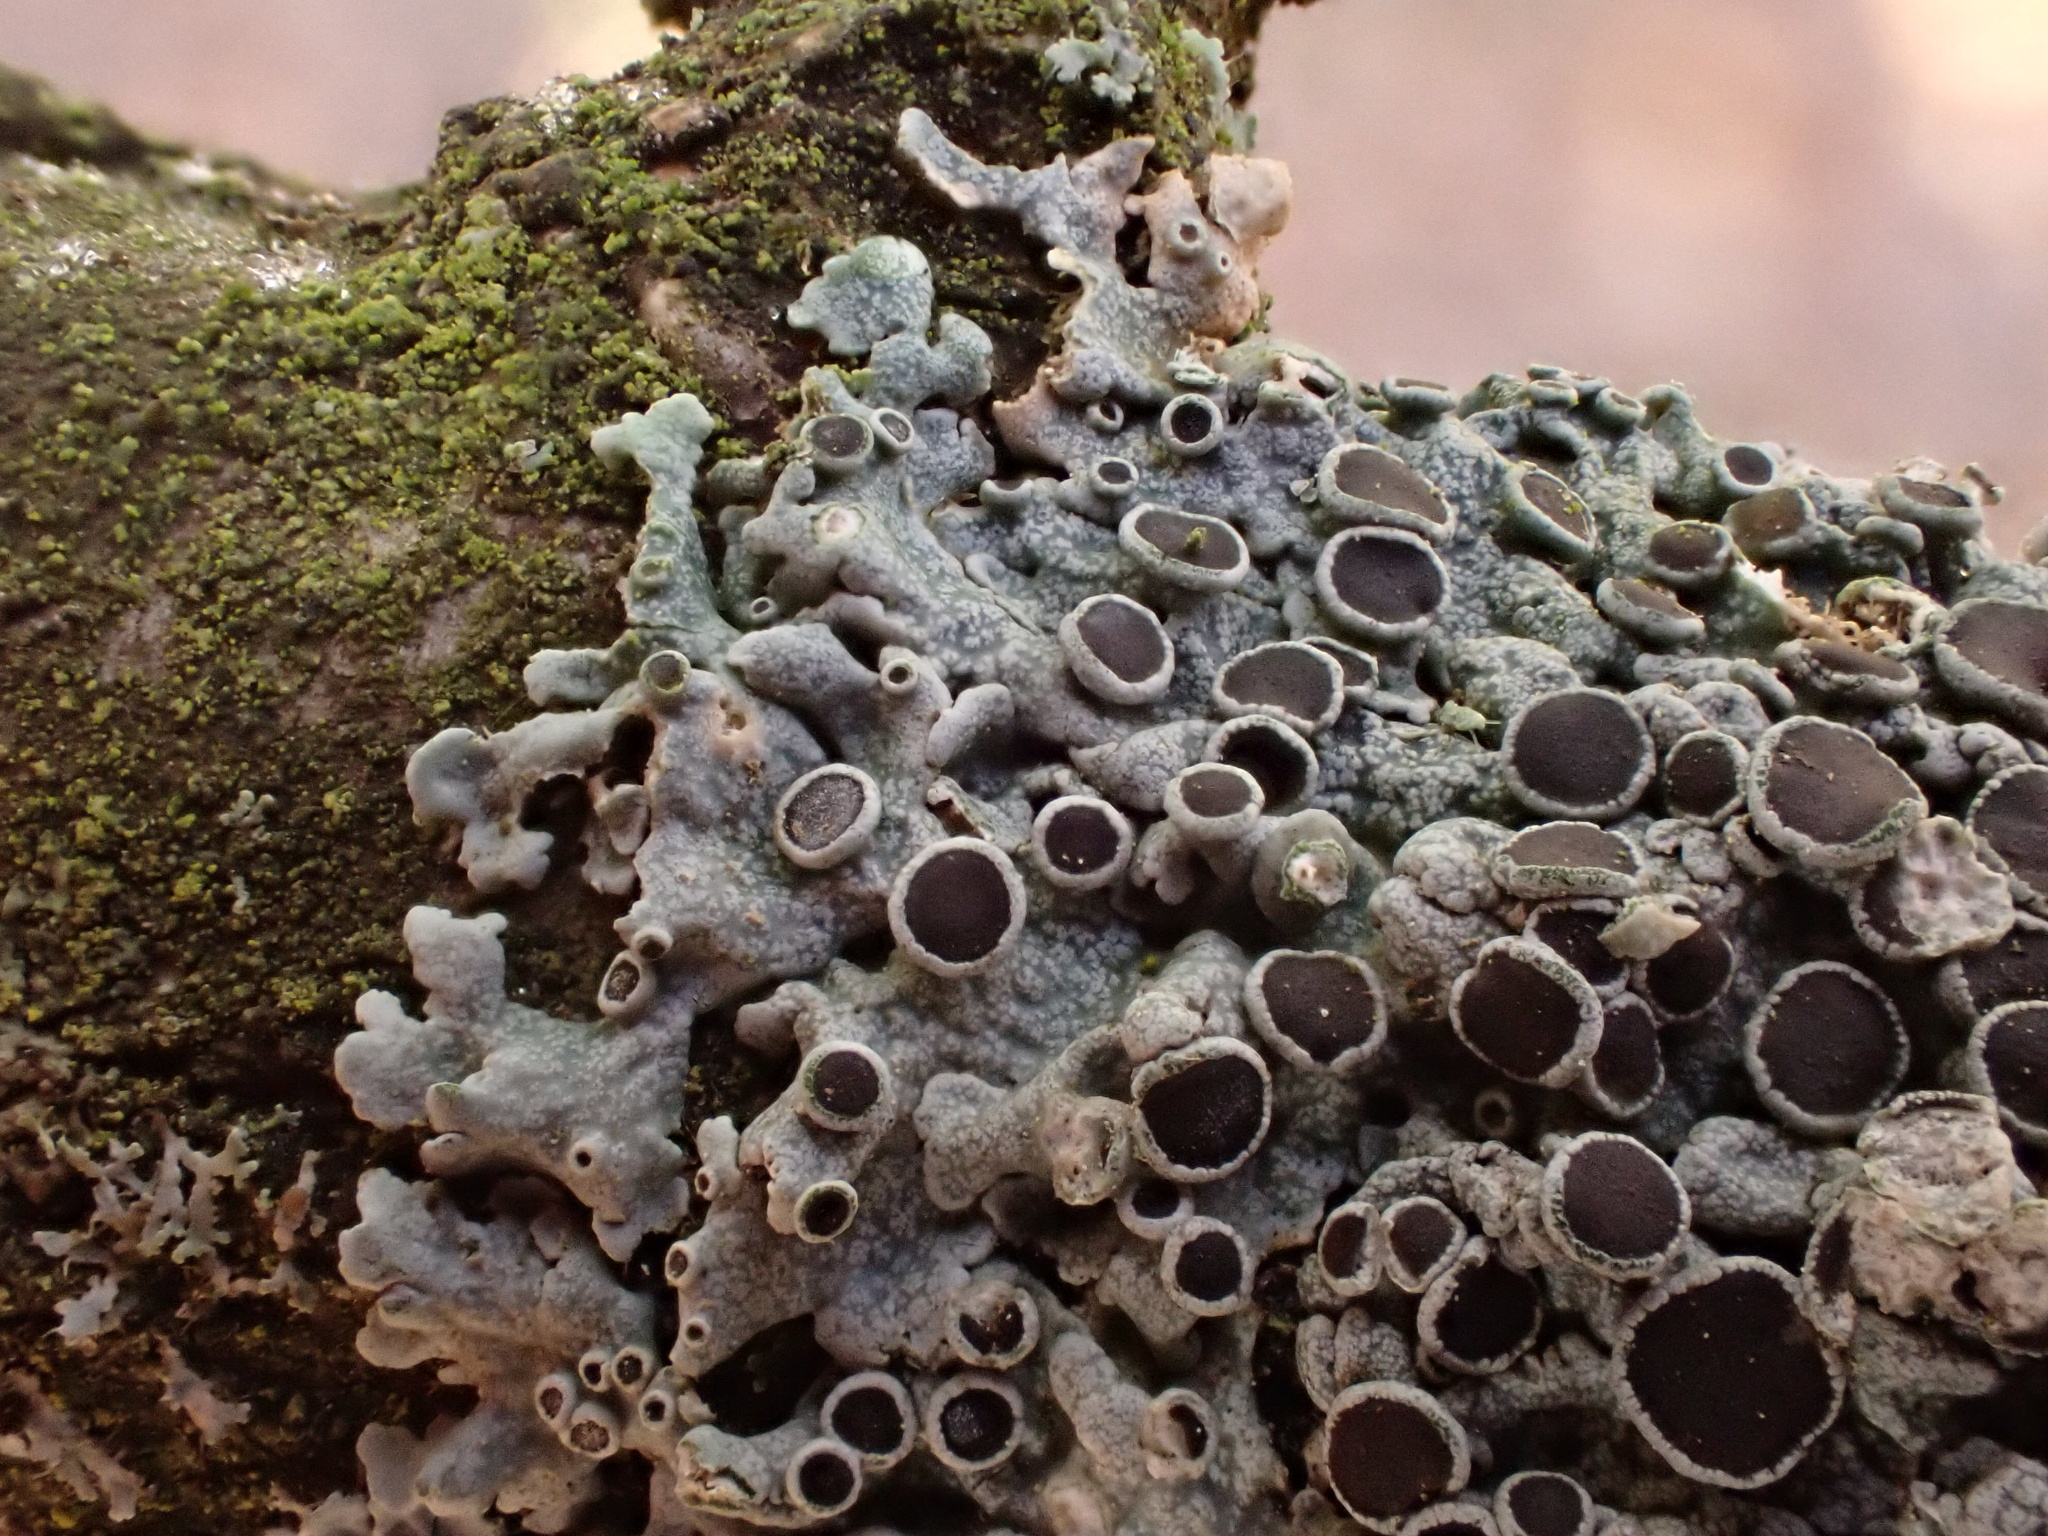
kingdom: Fungi
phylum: Ascomycota
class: Lecanoromycetes
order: Caliciales
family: Physciaceae
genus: Physcia
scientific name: Physcia aipolia
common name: Hoary rosette lichen
